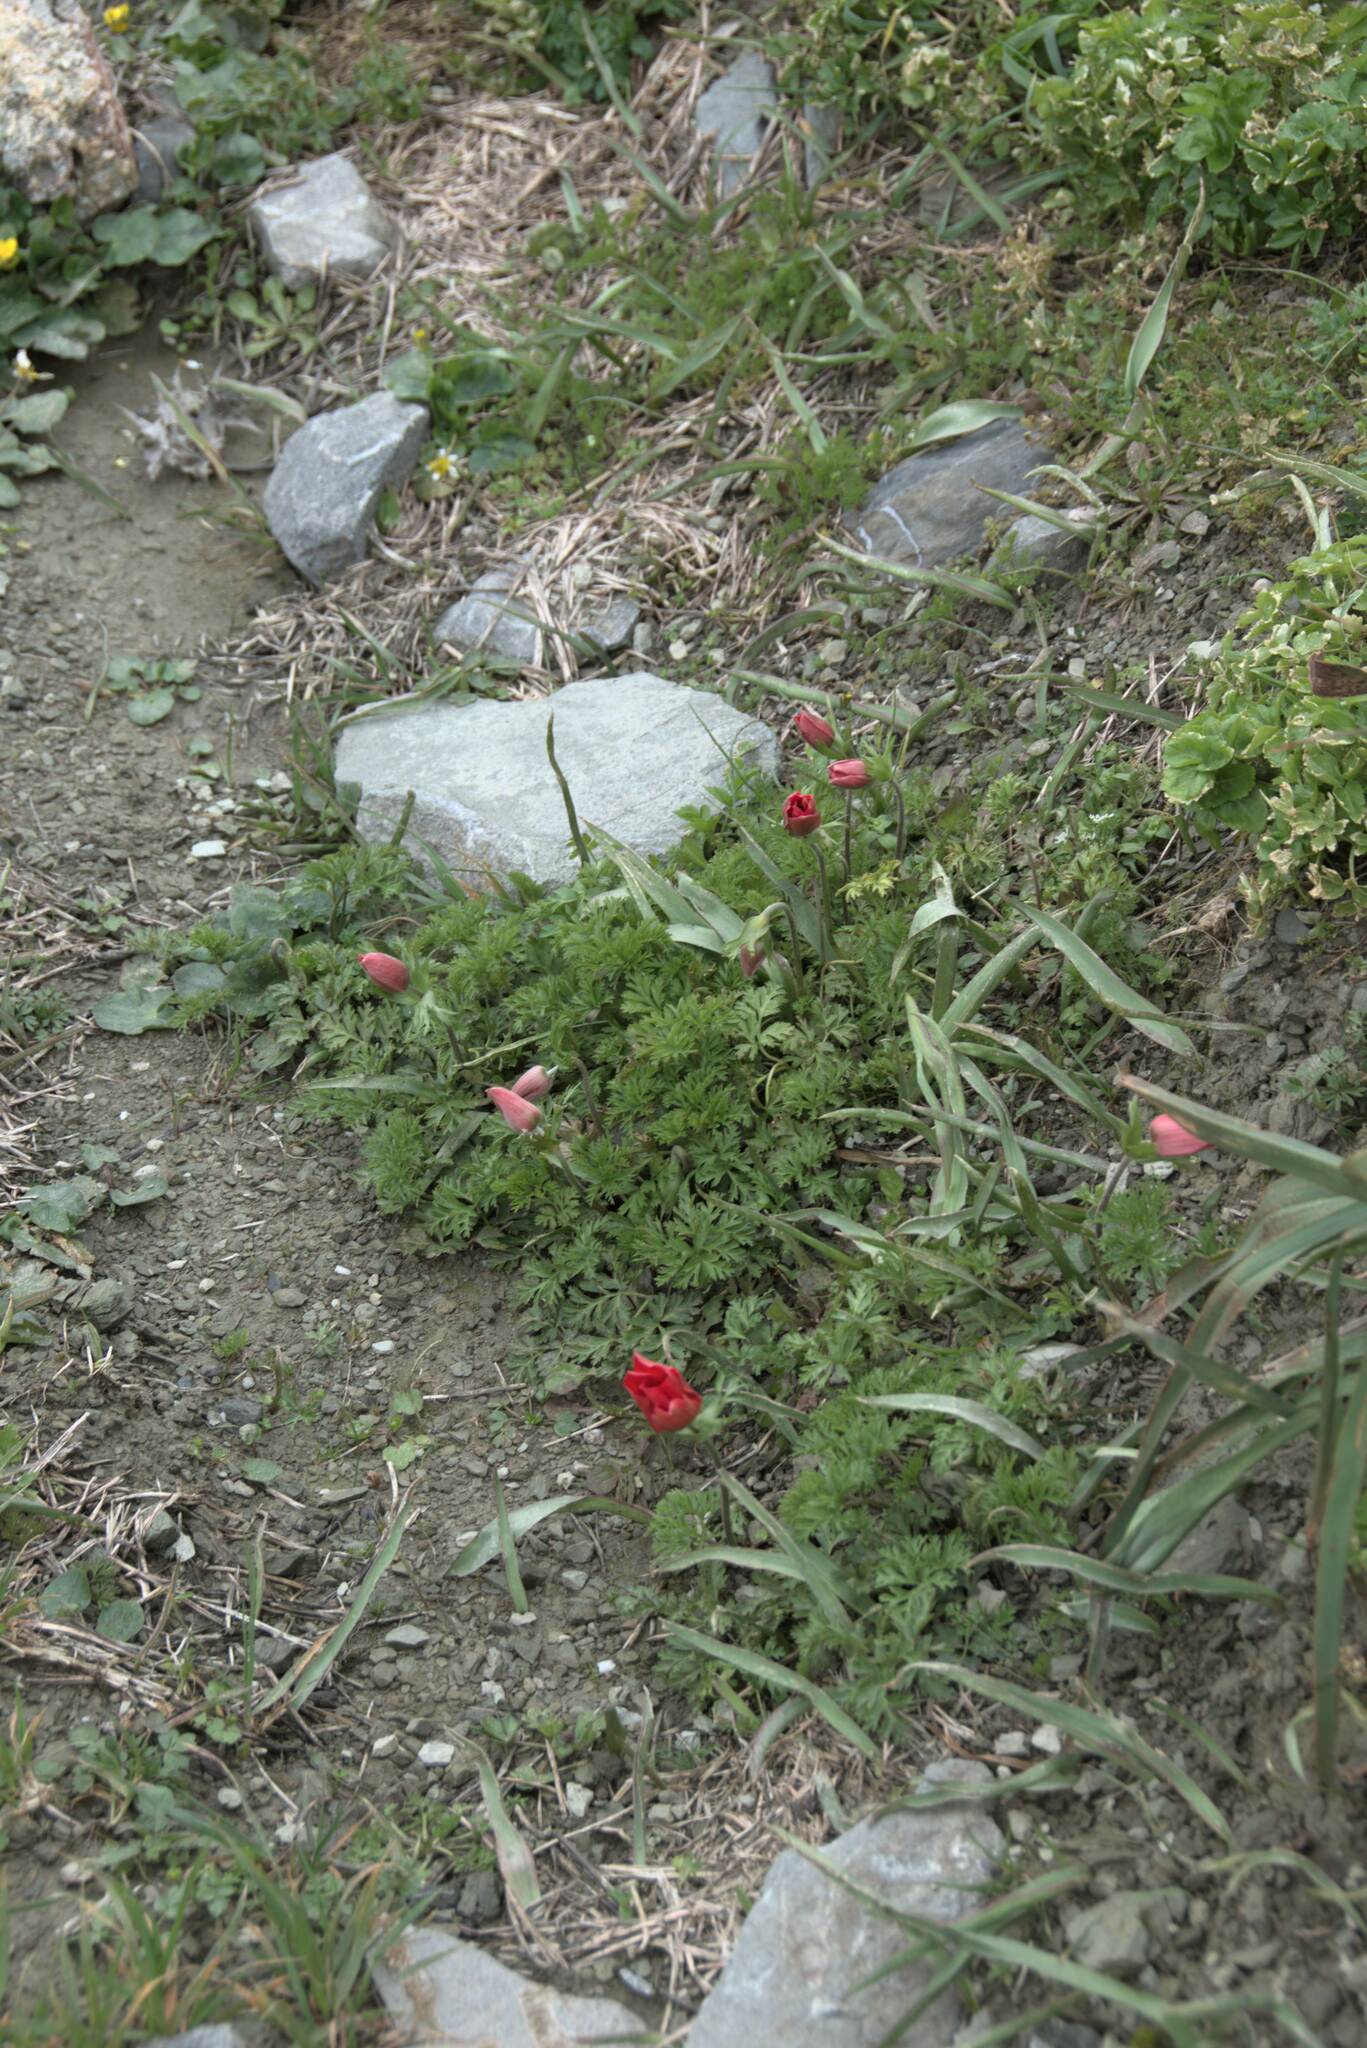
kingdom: Plantae
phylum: Tracheophyta
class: Magnoliopsida
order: Ranunculales
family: Ranunculaceae
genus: Anemone
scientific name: Anemone coronaria
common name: Poppy anemone
